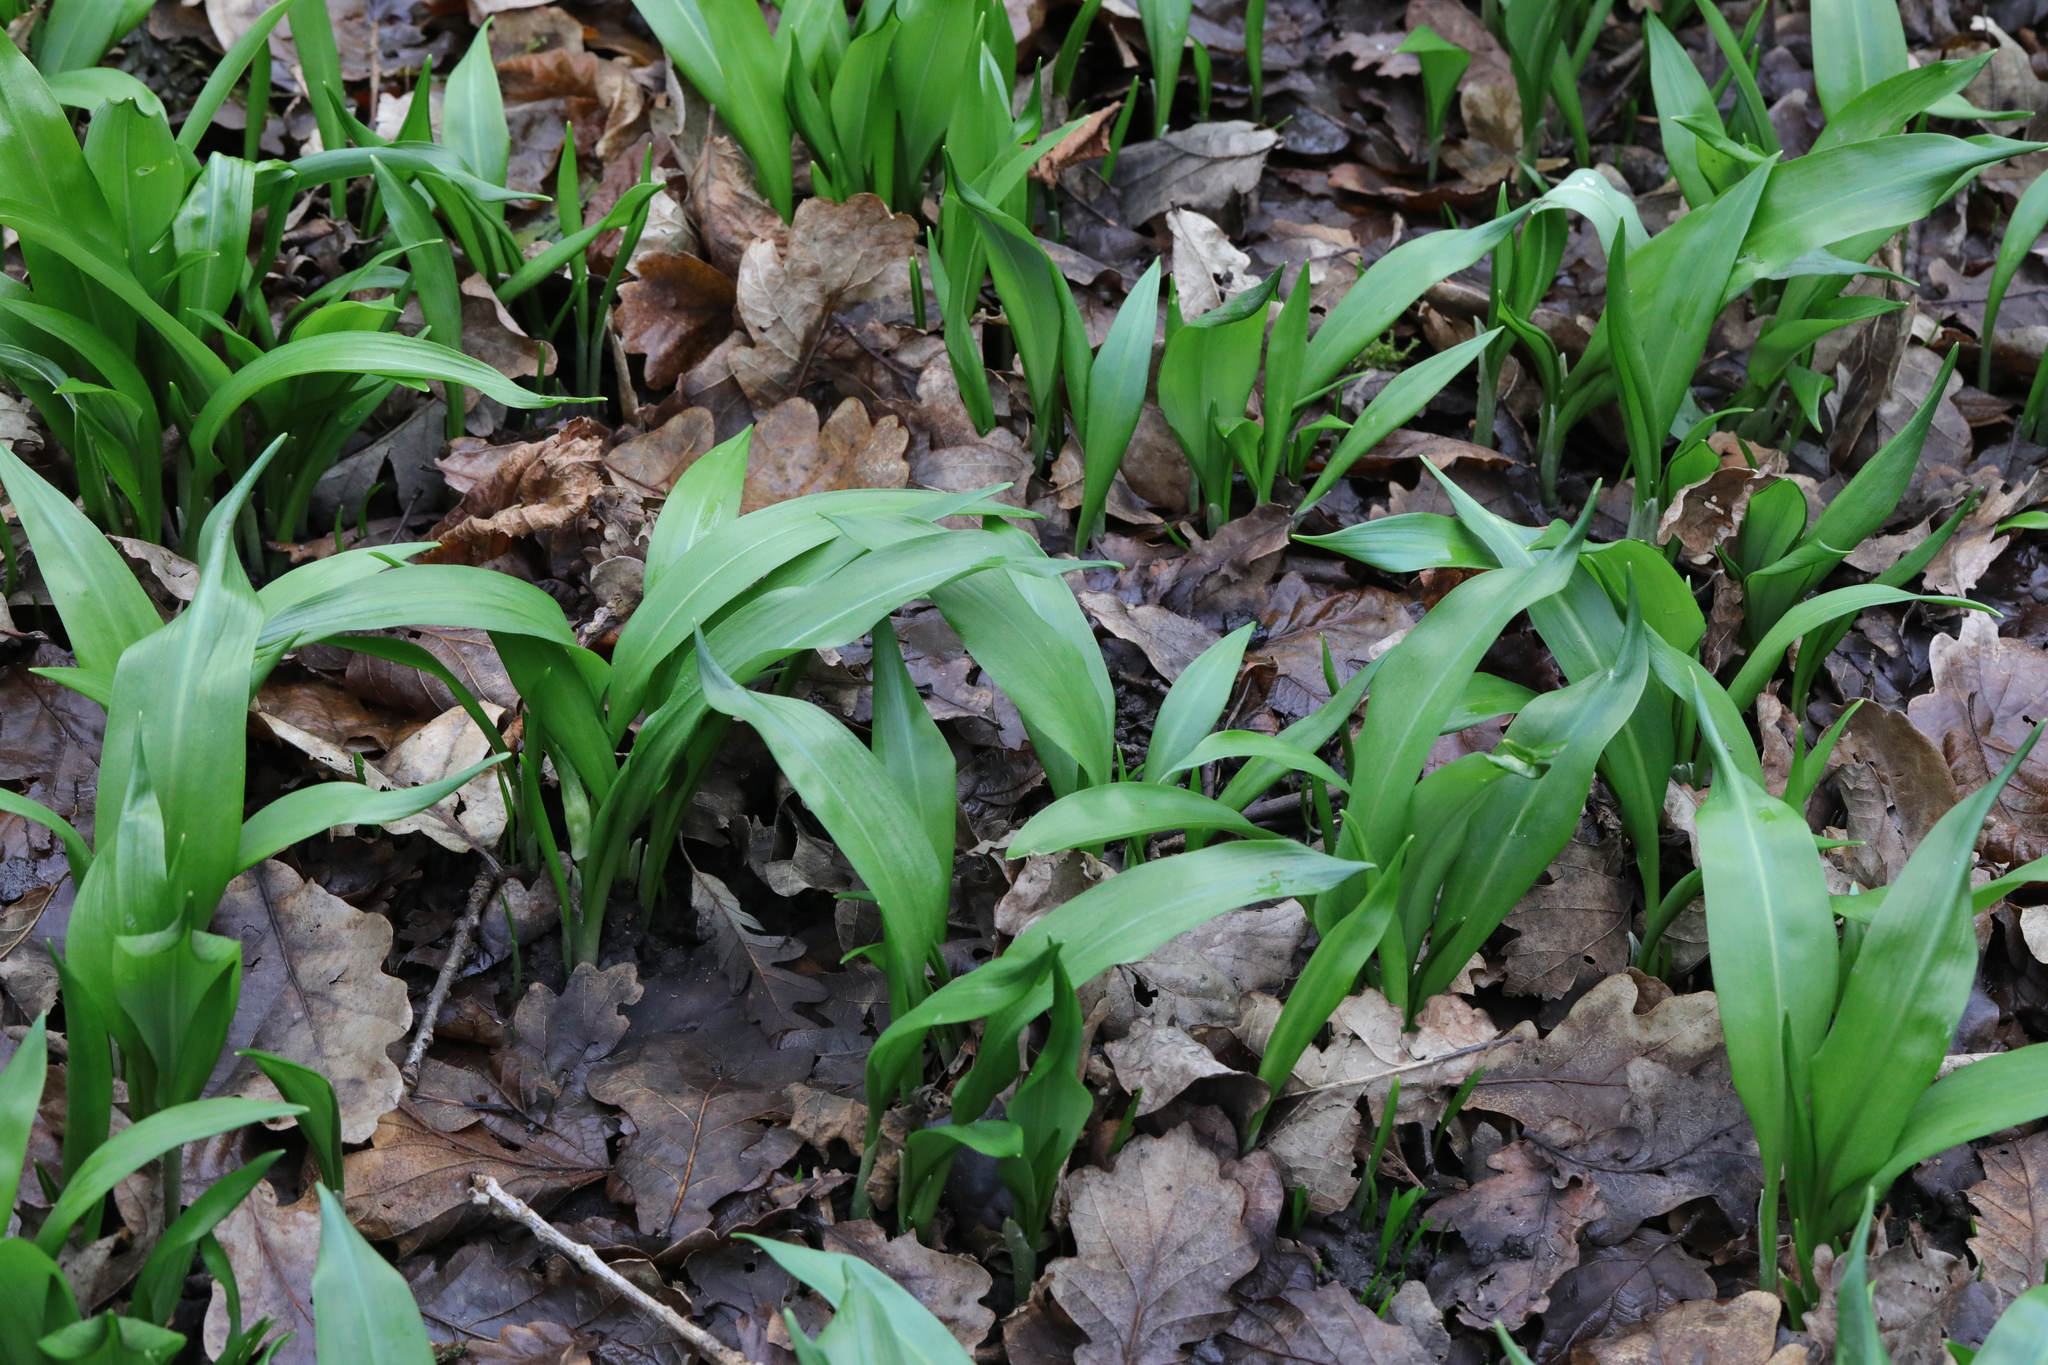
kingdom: Plantae
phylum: Tracheophyta
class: Liliopsida
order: Asparagales
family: Amaryllidaceae
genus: Allium
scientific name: Allium ursinum
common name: Ramsons
